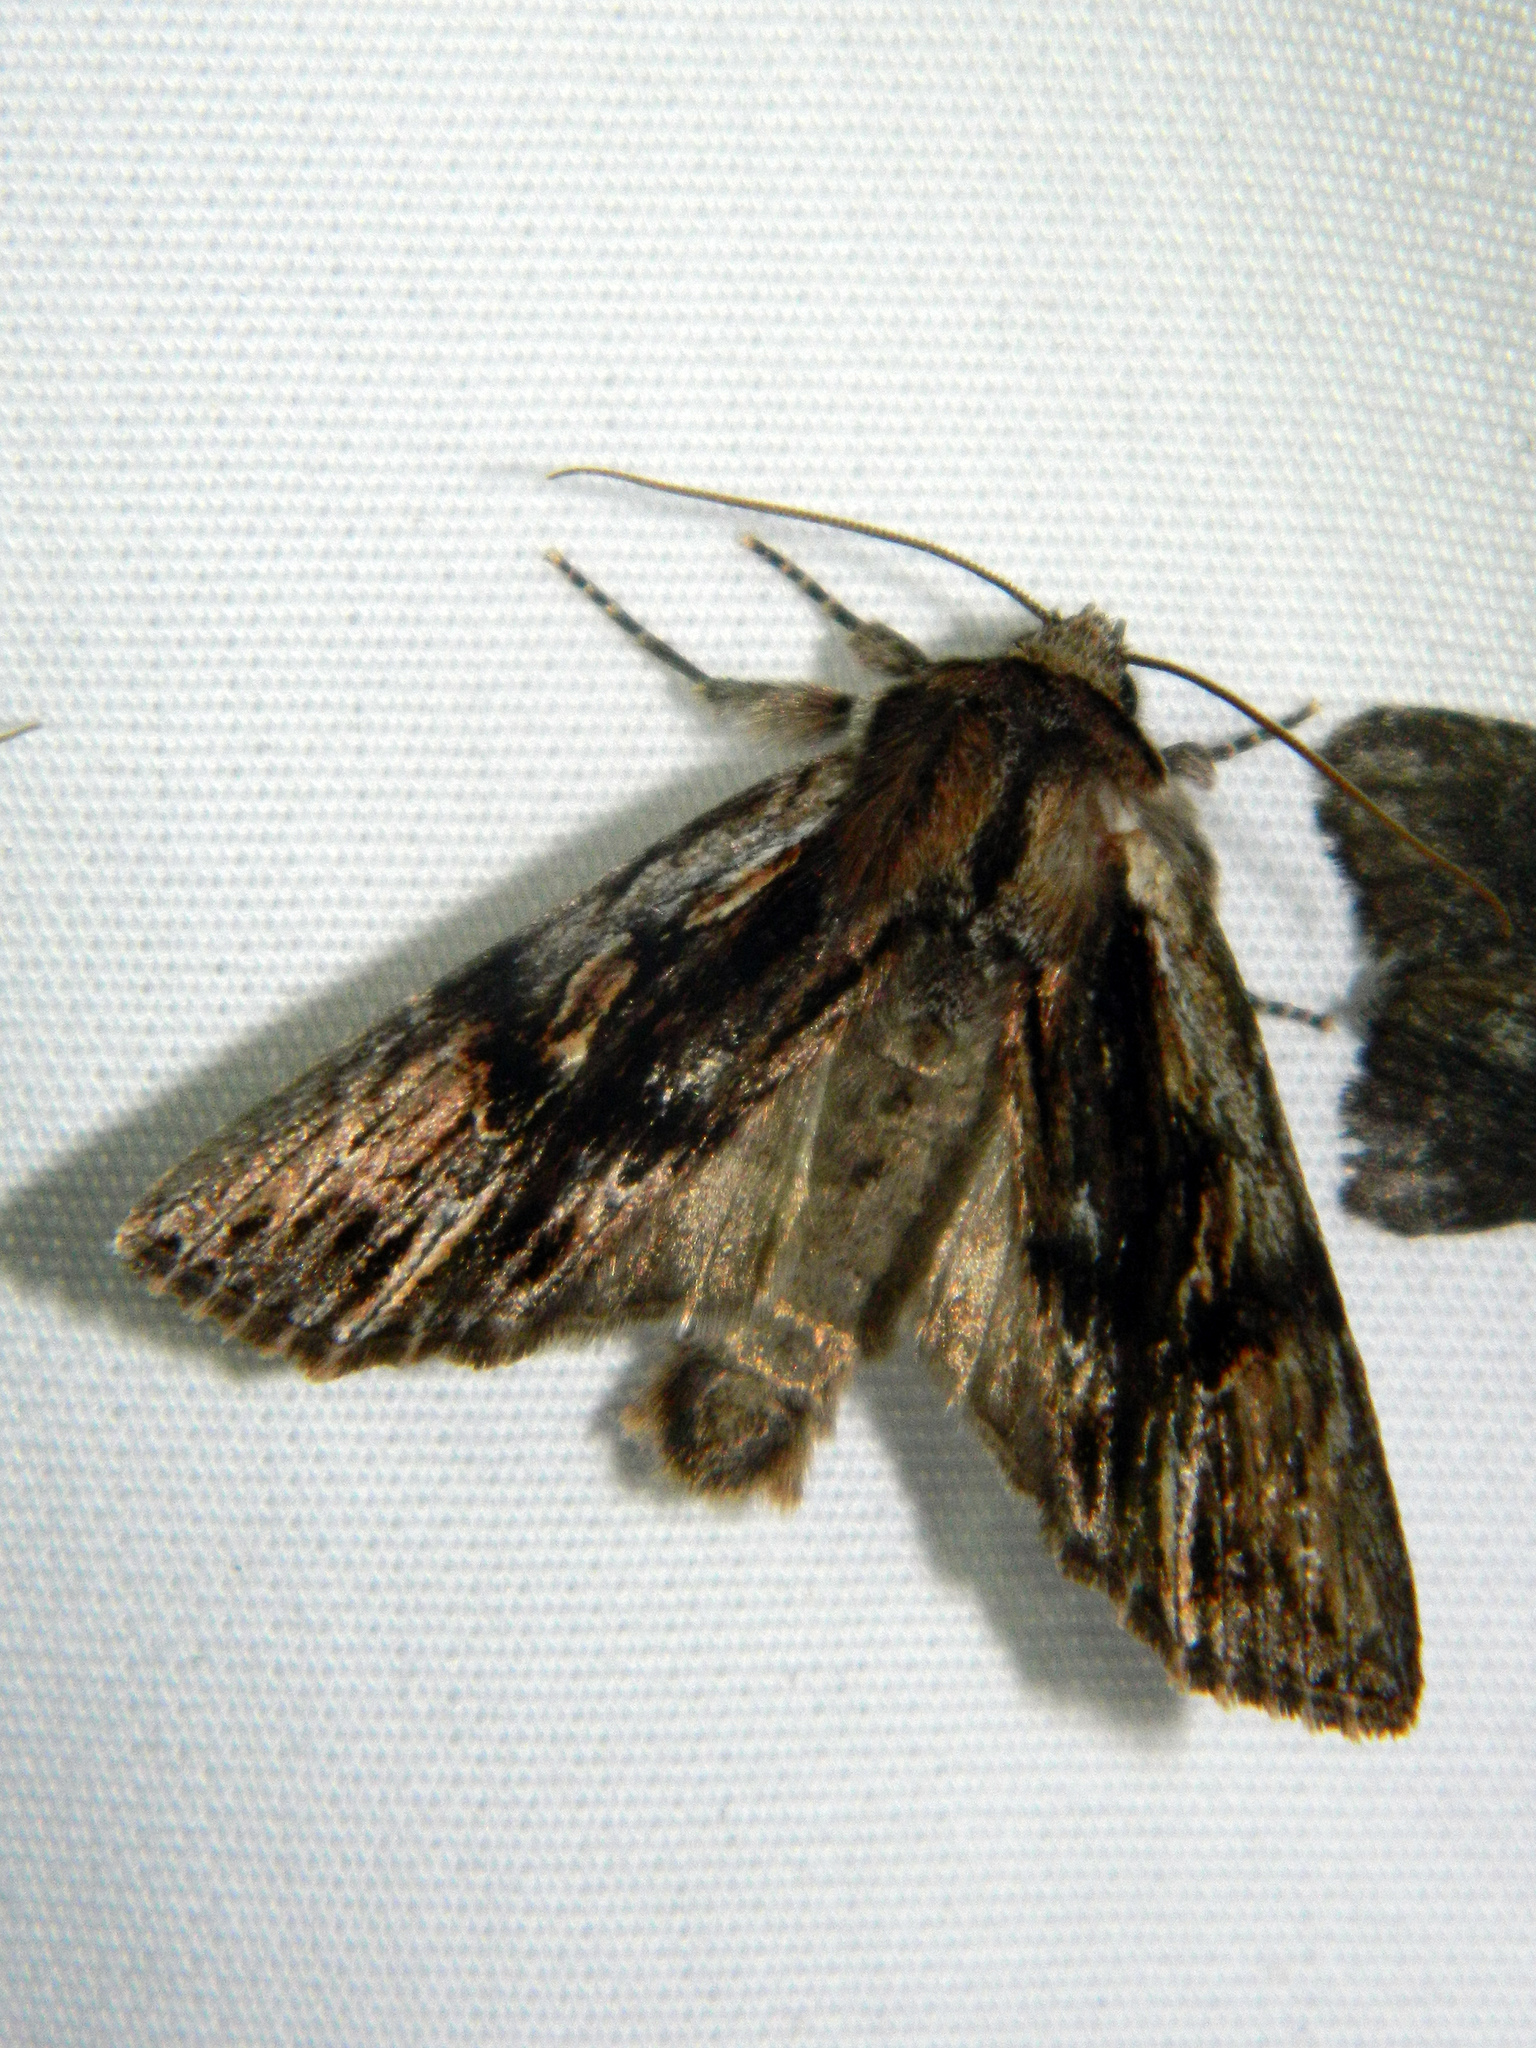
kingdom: Animalia
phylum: Arthropoda
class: Insecta
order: Lepidoptera
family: Noctuidae
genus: Achatia
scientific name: Achatia evicta
